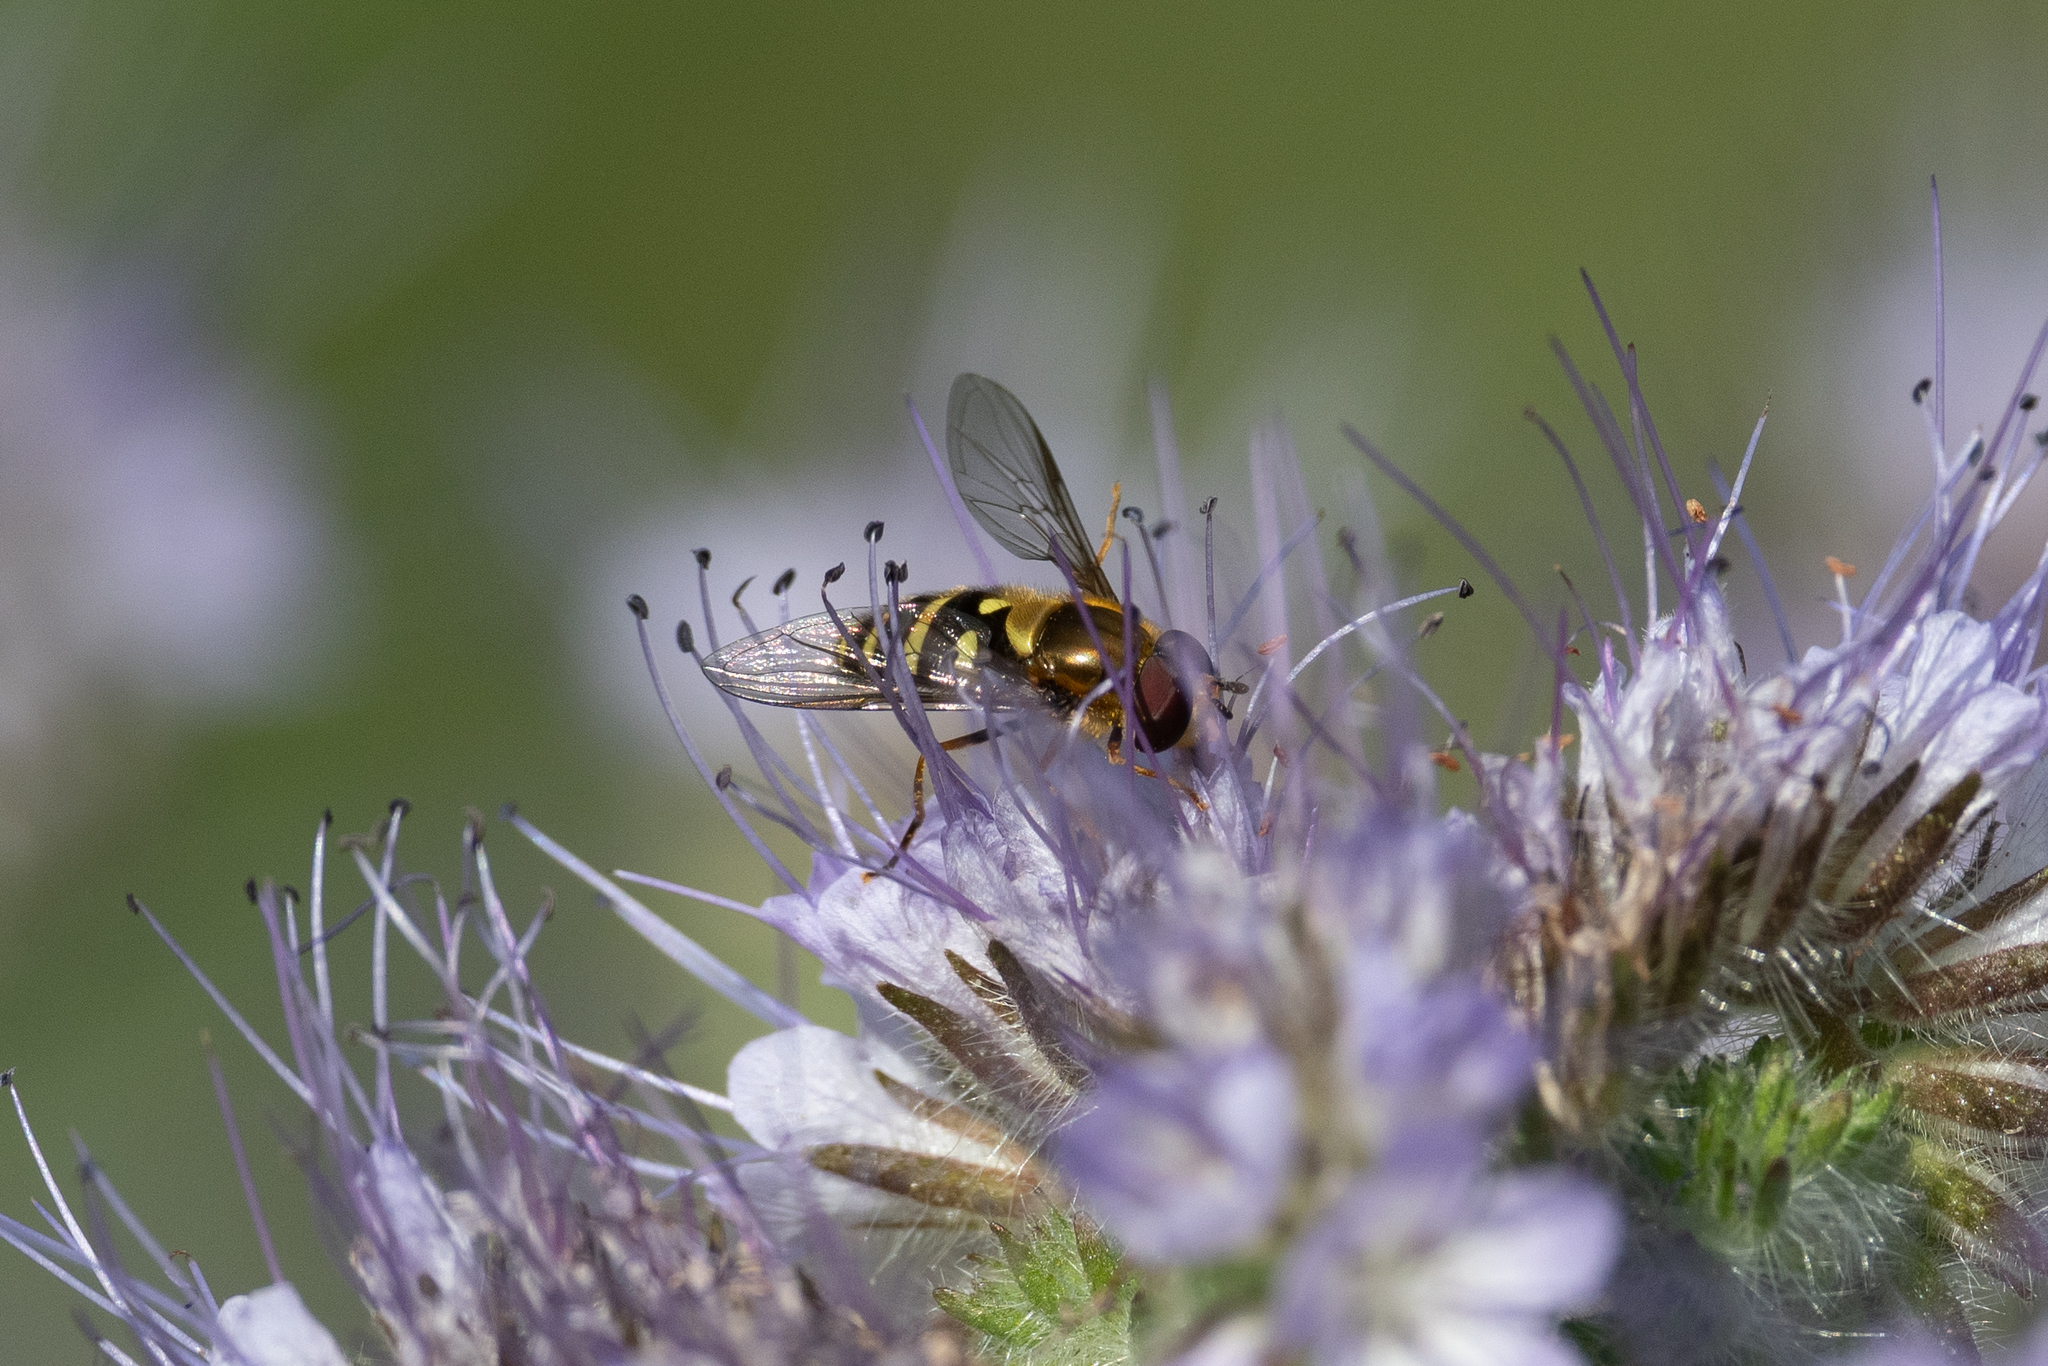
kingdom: Animalia
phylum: Arthropoda
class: Insecta
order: Diptera
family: Syrphidae
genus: Syrphus
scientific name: Syrphus opinator
